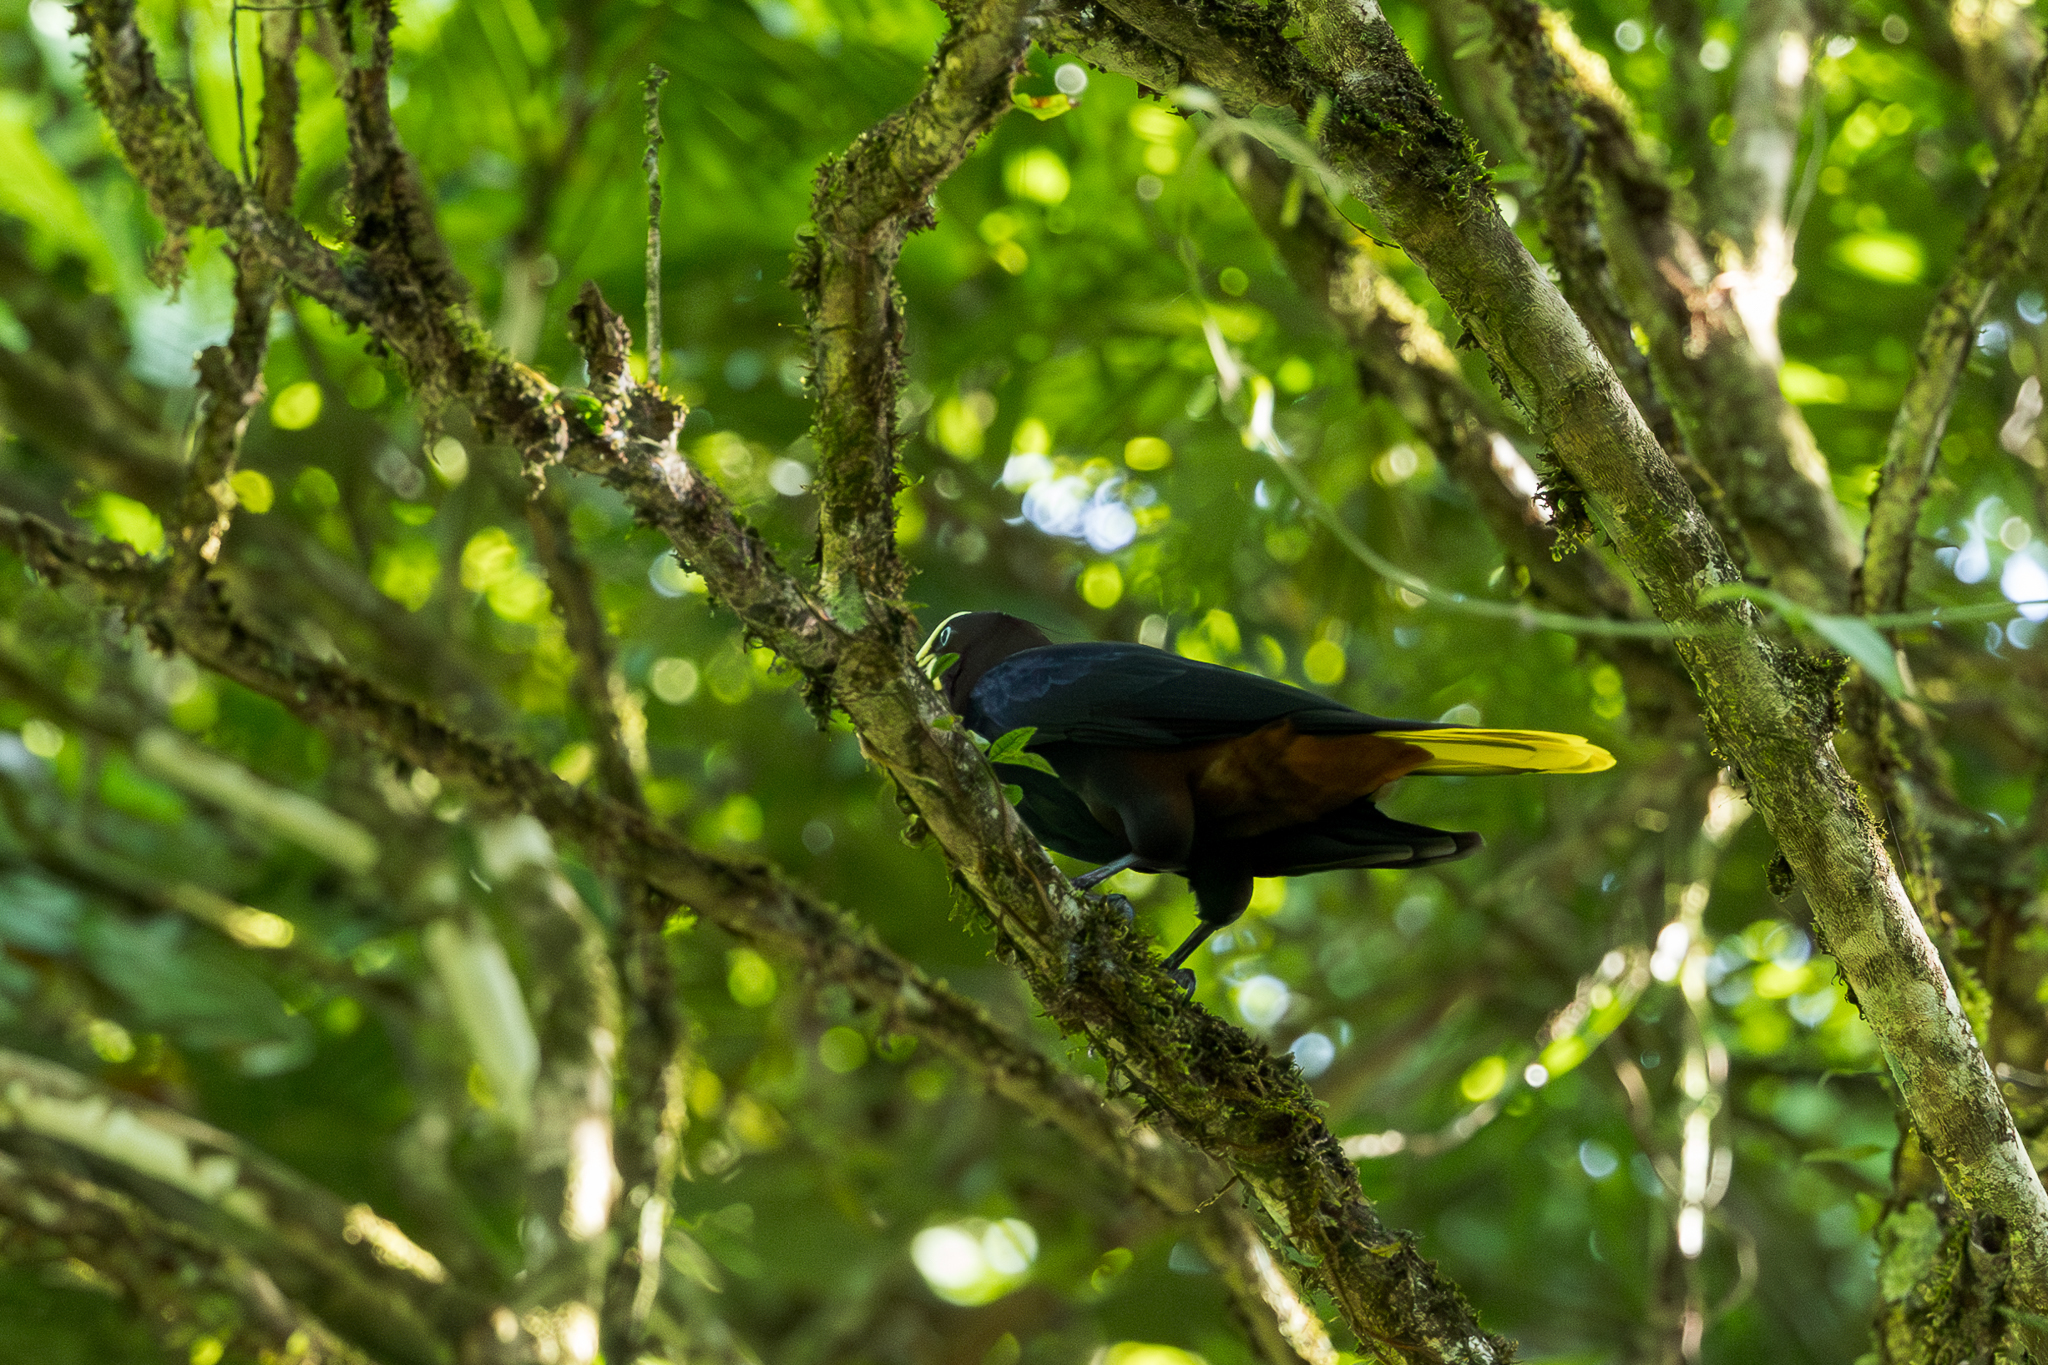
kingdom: Animalia
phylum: Chordata
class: Aves
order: Passeriformes
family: Icteridae
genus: Psarocolius
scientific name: Psarocolius wagleri
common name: Chestnut-headed oropendola
